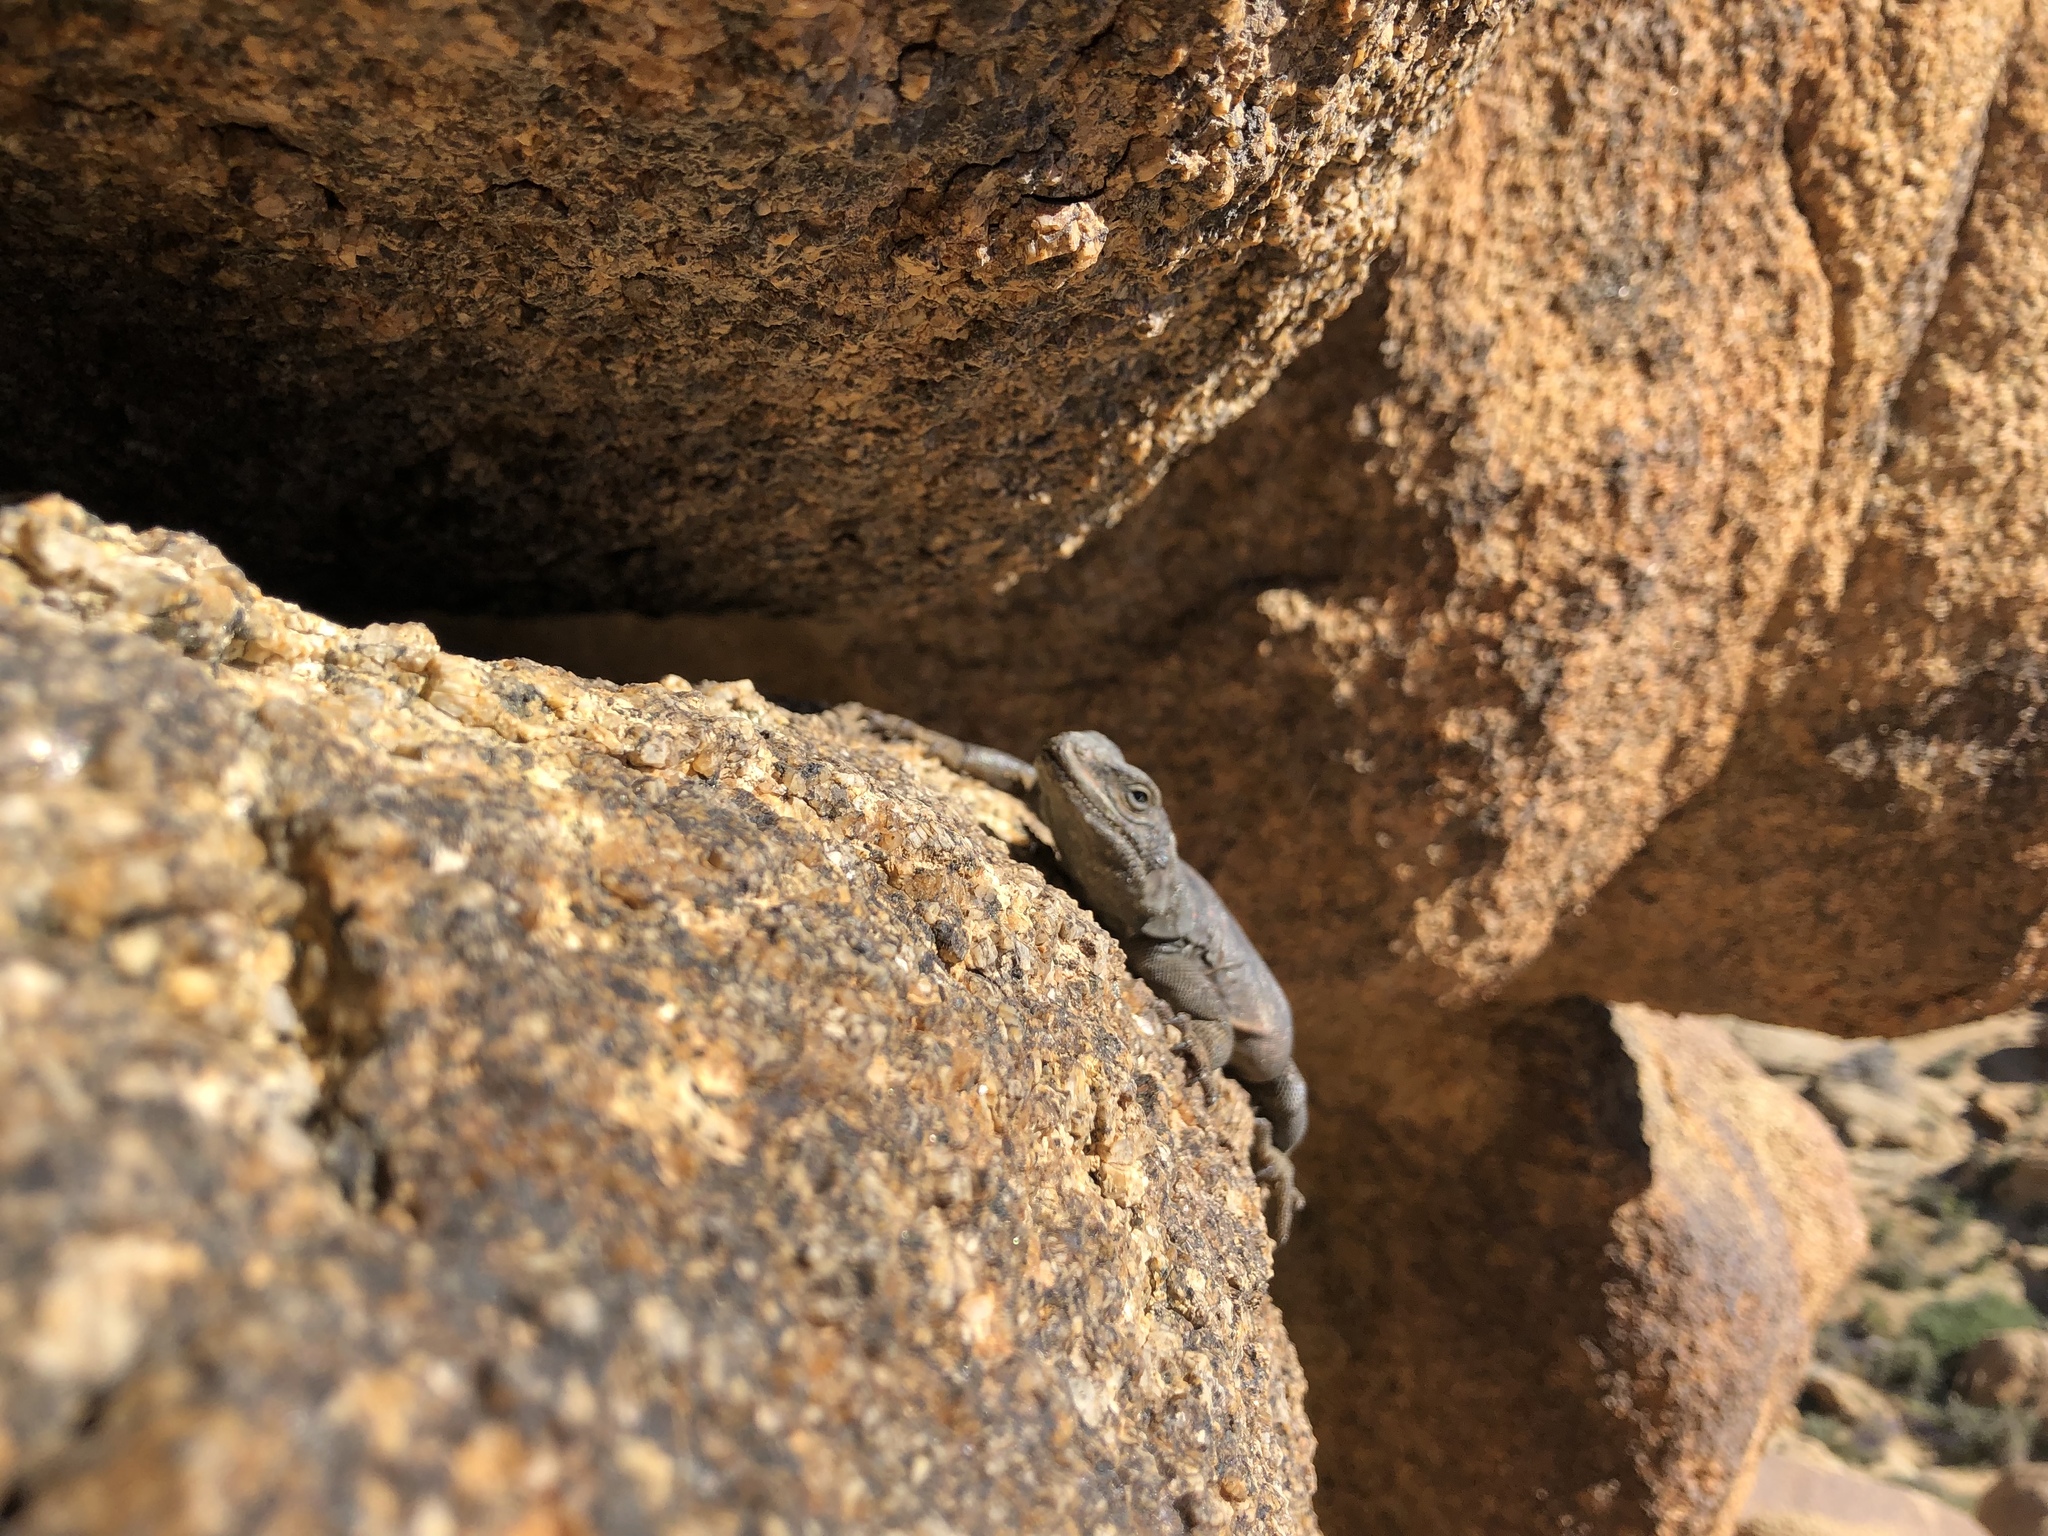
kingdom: Animalia
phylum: Chordata
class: Squamata
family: Iguanidae
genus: Sauromalus
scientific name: Sauromalus ater
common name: Northern chuckwalla
